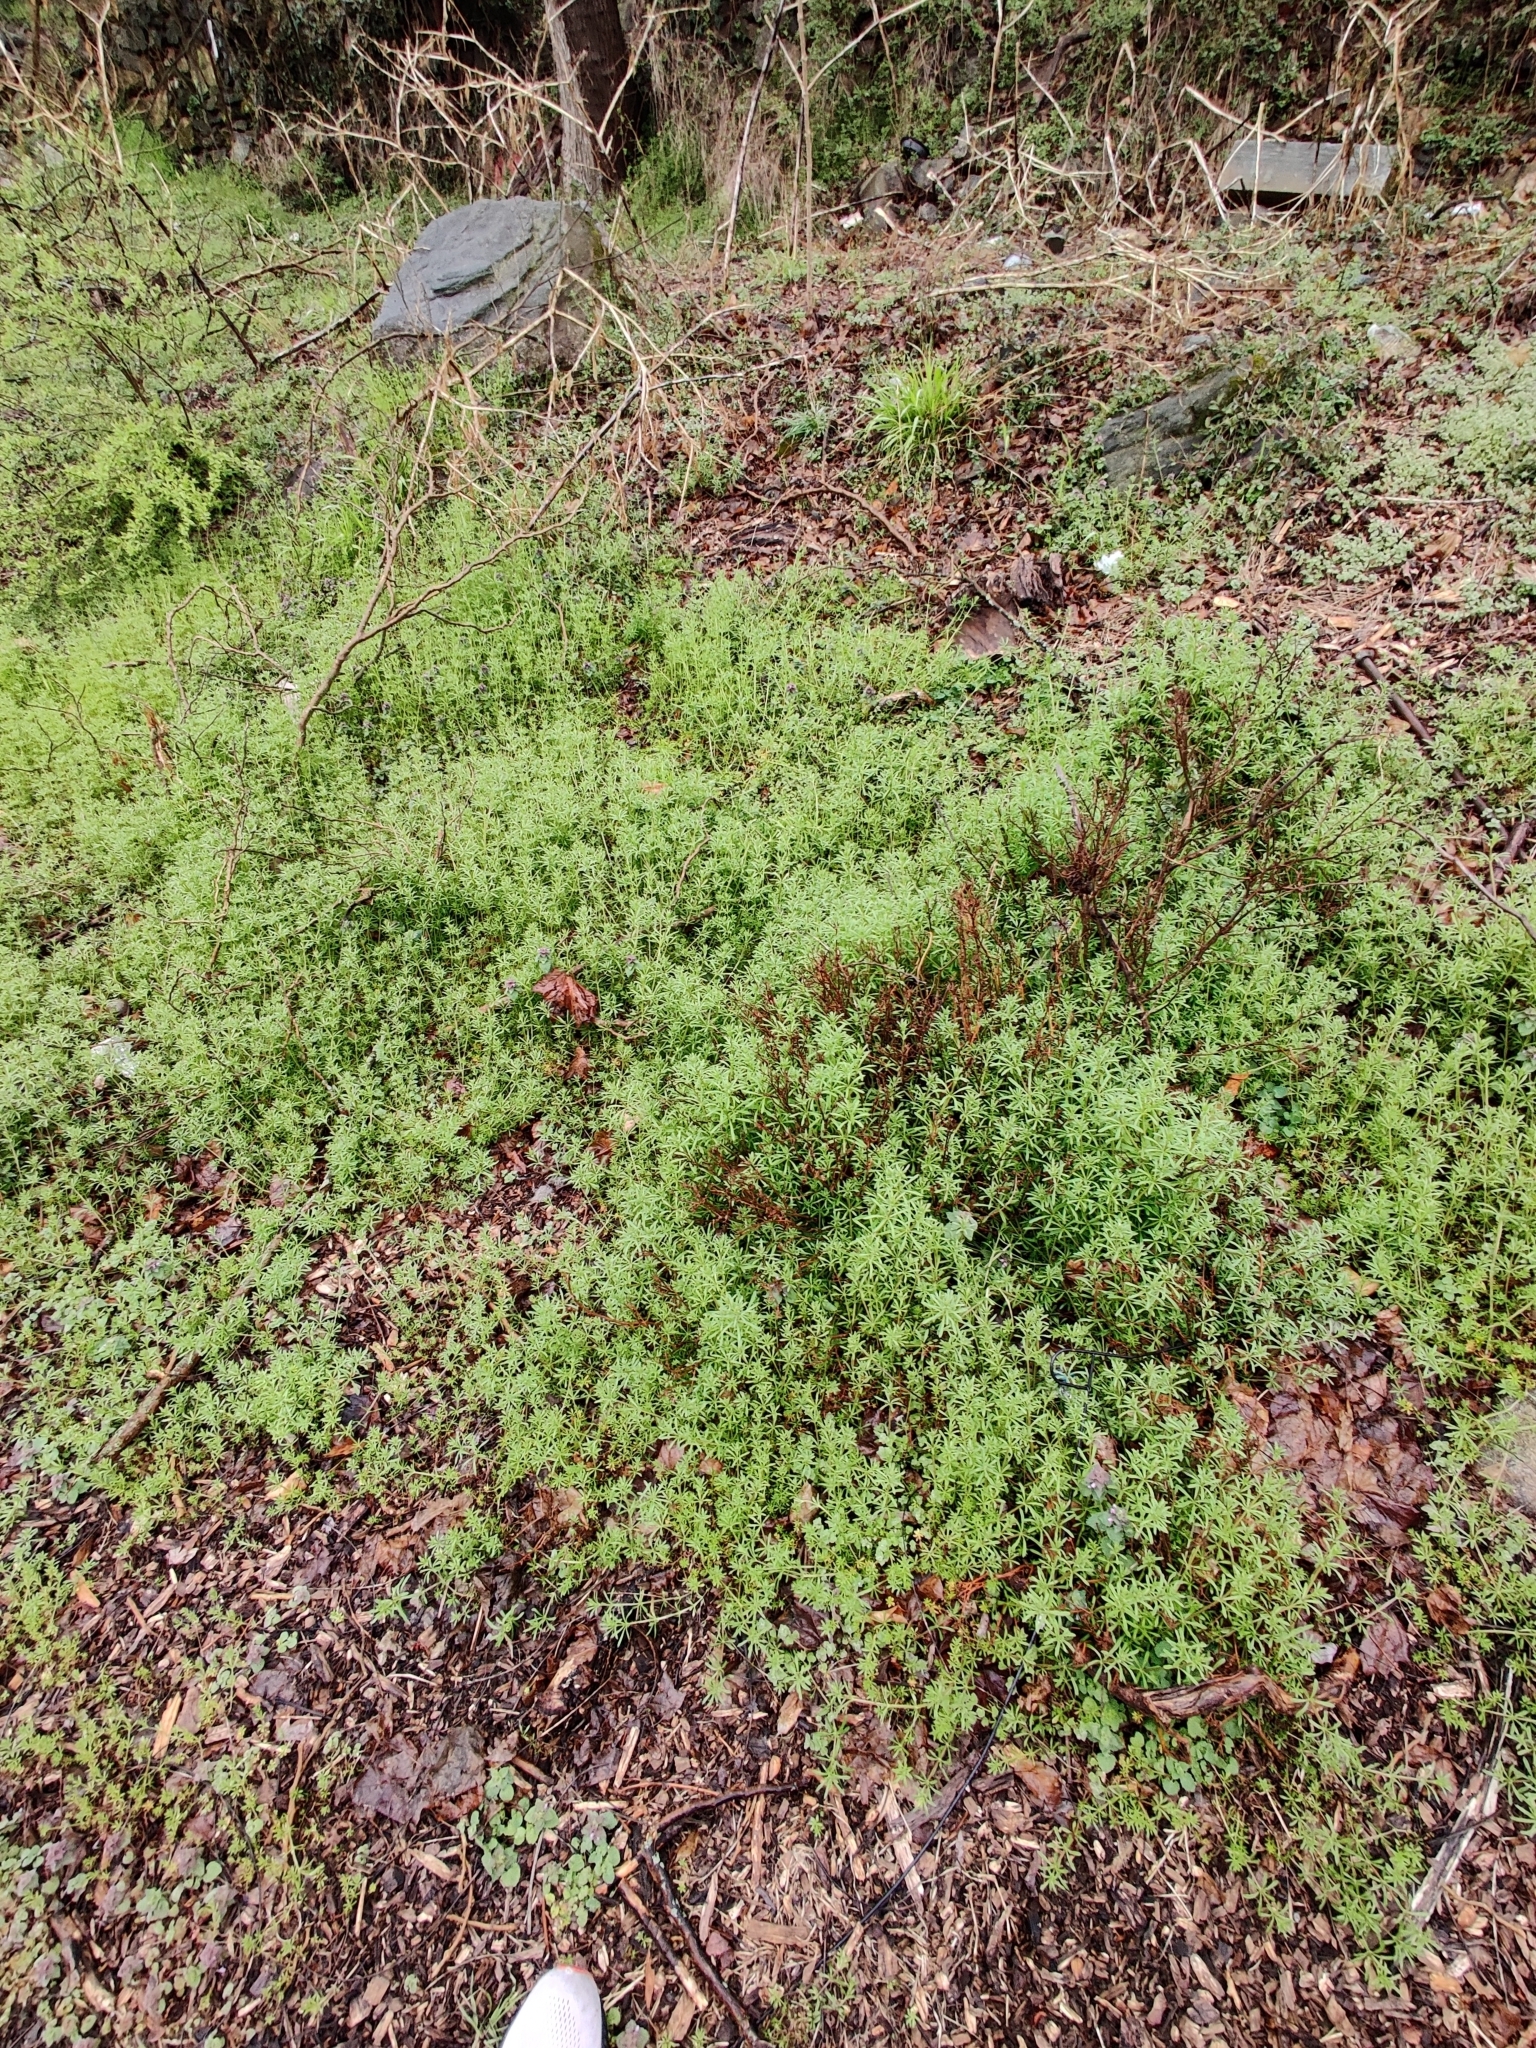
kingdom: Plantae
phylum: Tracheophyta
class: Magnoliopsida
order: Gentianales
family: Rubiaceae
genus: Galium
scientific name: Galium aparine
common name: Cleavers
